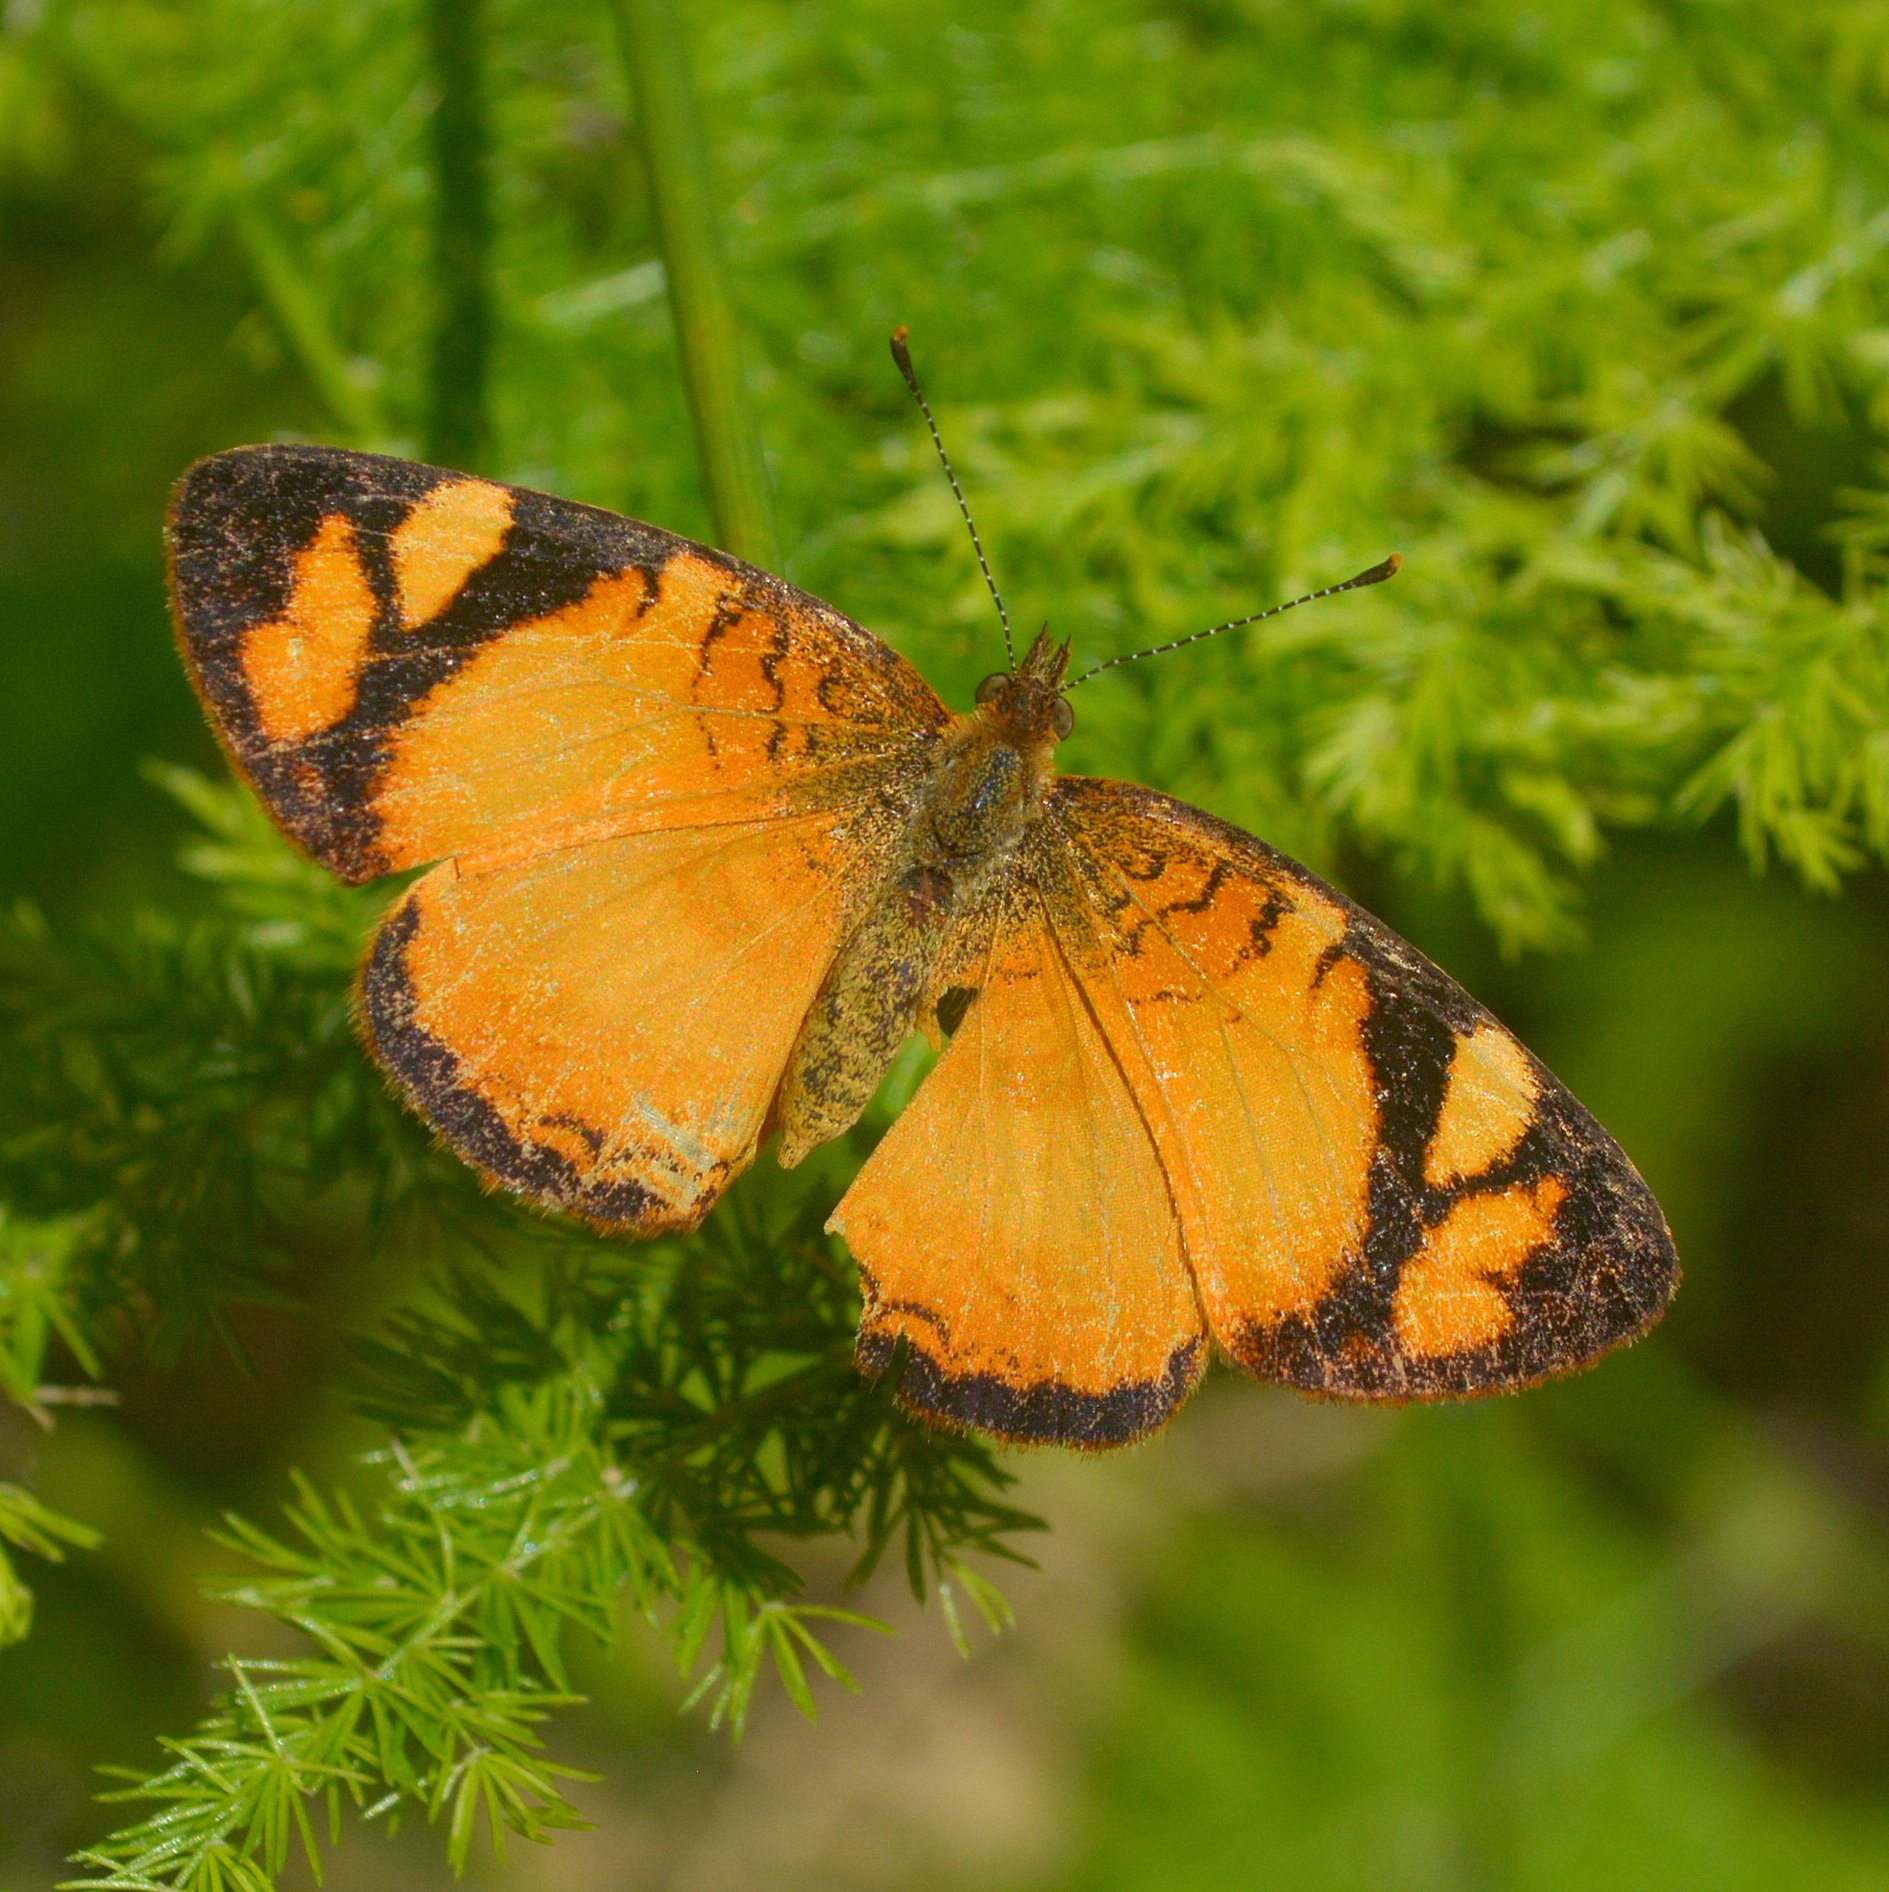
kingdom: Animalia
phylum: Arthropoda
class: Insecta
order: Lepidoptera
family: Nymphalidae
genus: Tegosa
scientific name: Tegosa claudina
